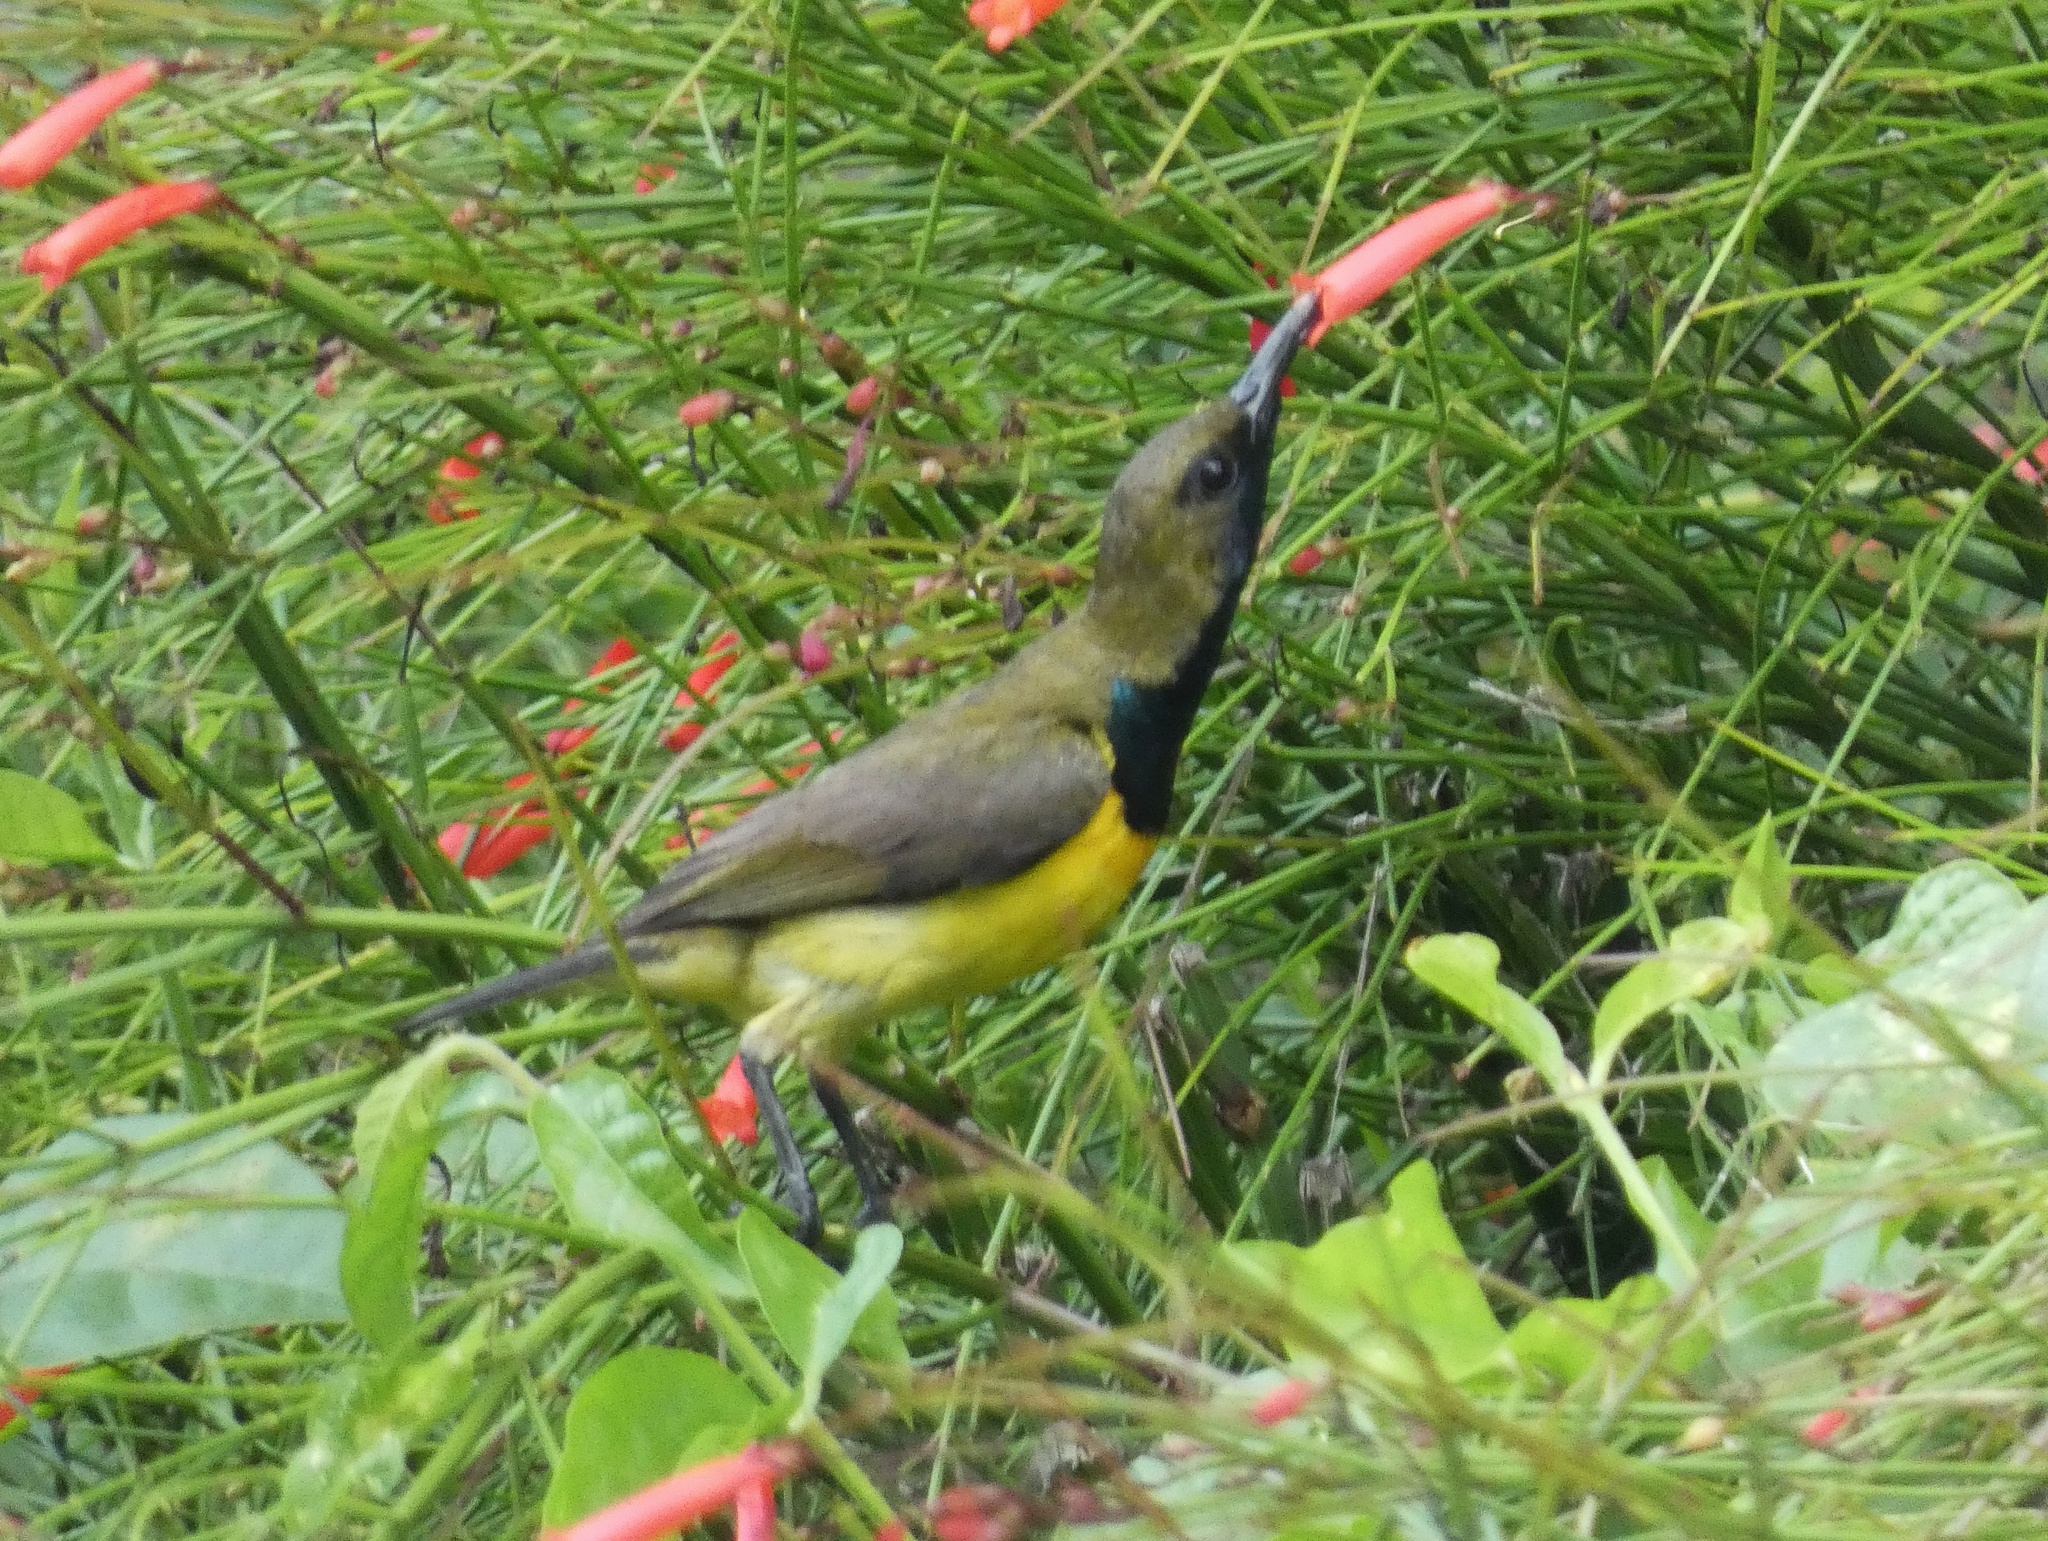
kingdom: Animalia
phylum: Chordata
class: Aves
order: Passeriformes
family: Nectariniidae
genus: Cinnyris
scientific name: Cinnyris jugularis
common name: Olive-backed sunbird
